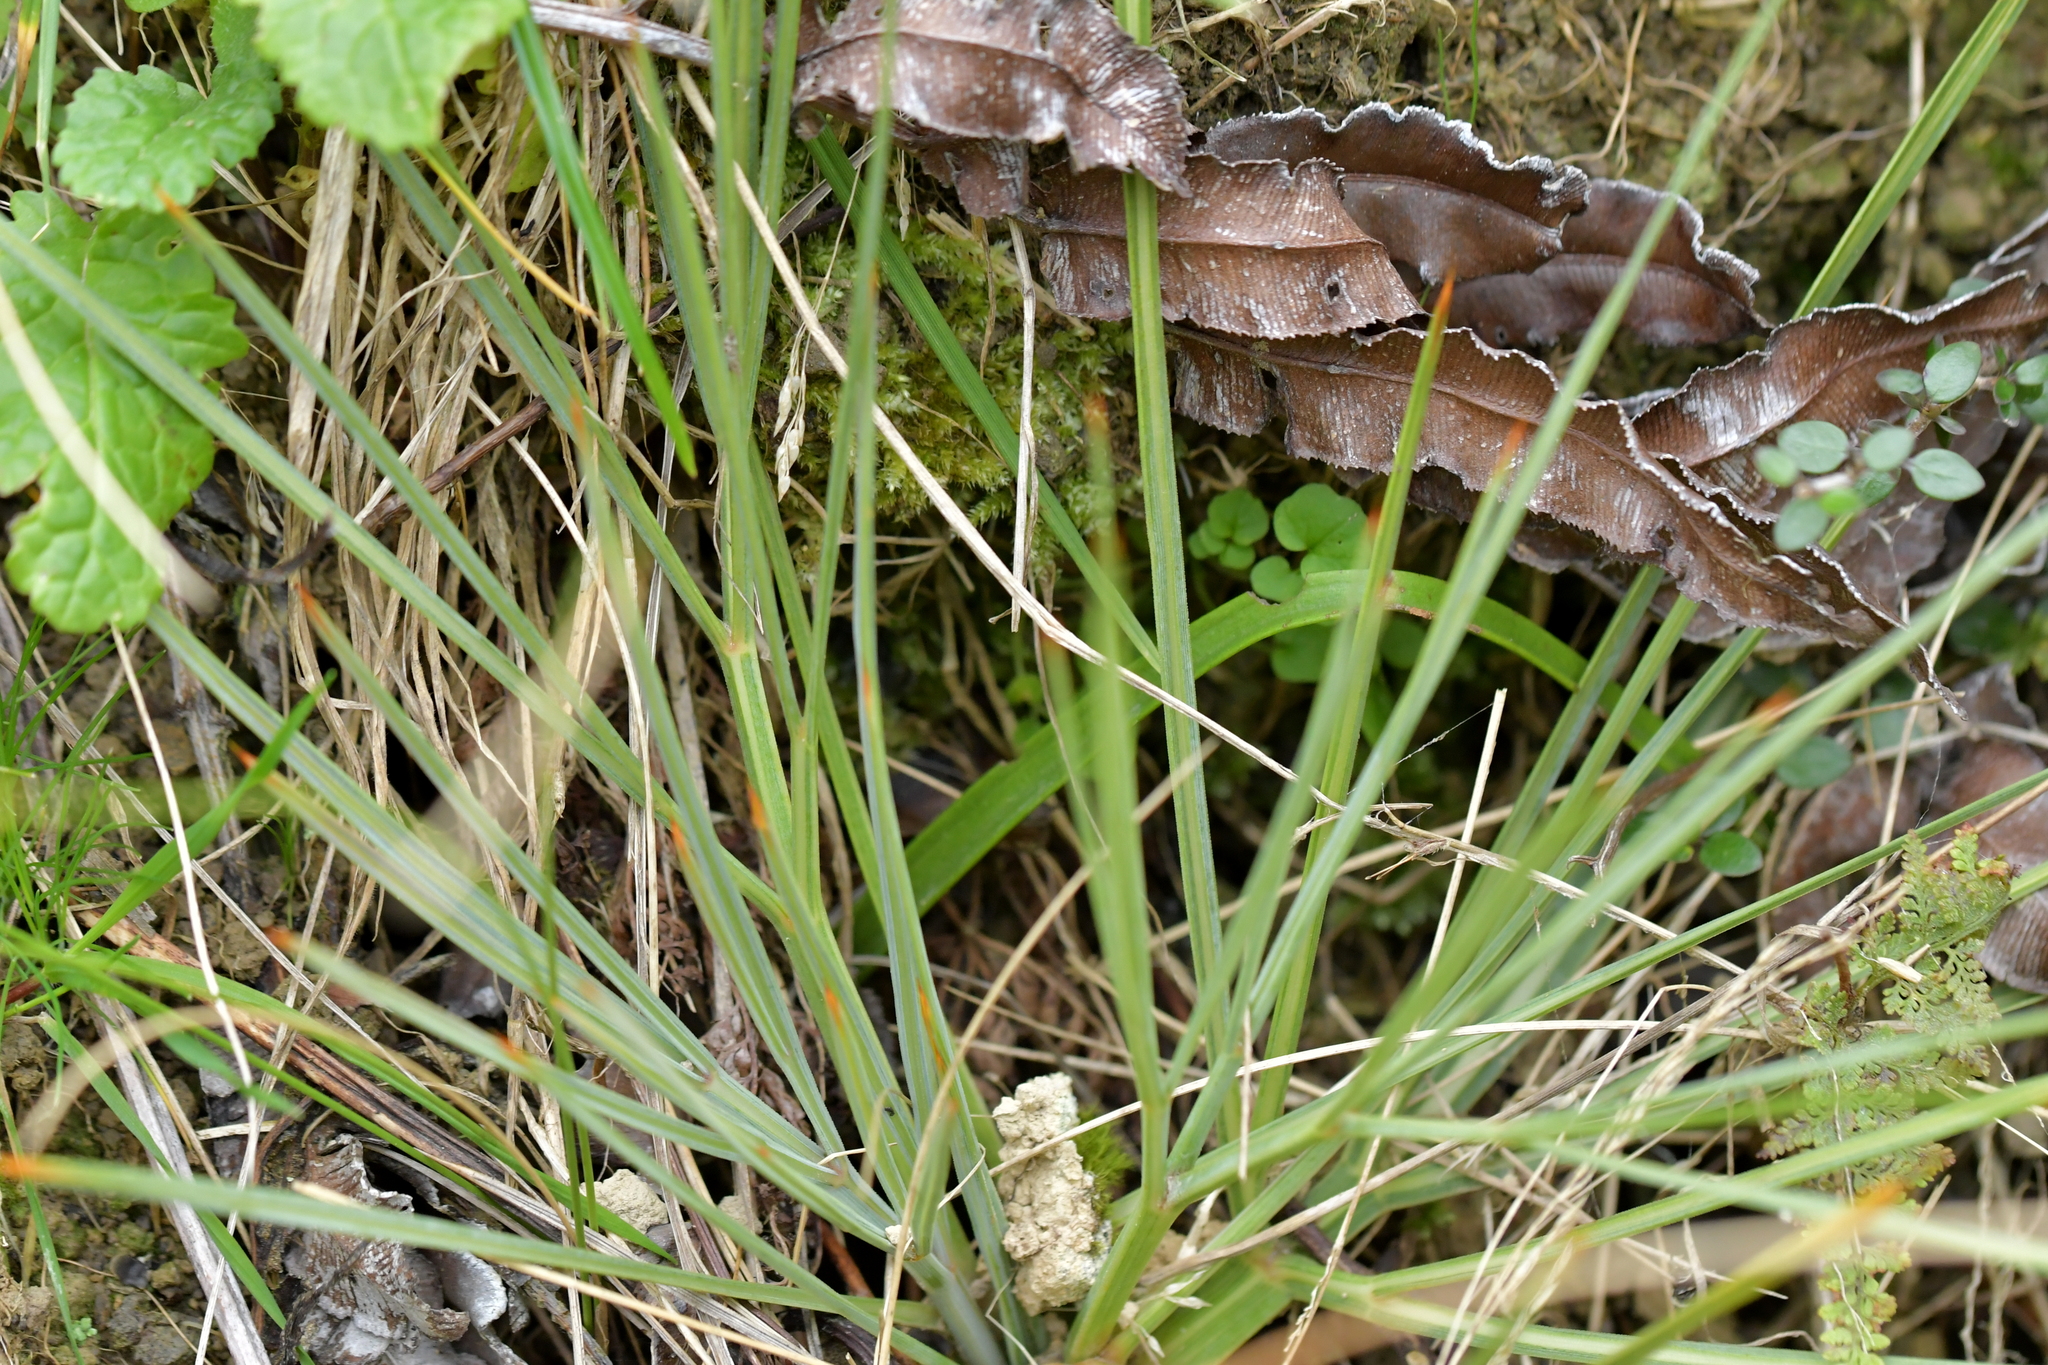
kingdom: Plantae
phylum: Tracheophyta
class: Magnoliopsida
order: Apiales
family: Apiaceae
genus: Aciphylla
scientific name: Aciphylla squarrosa
